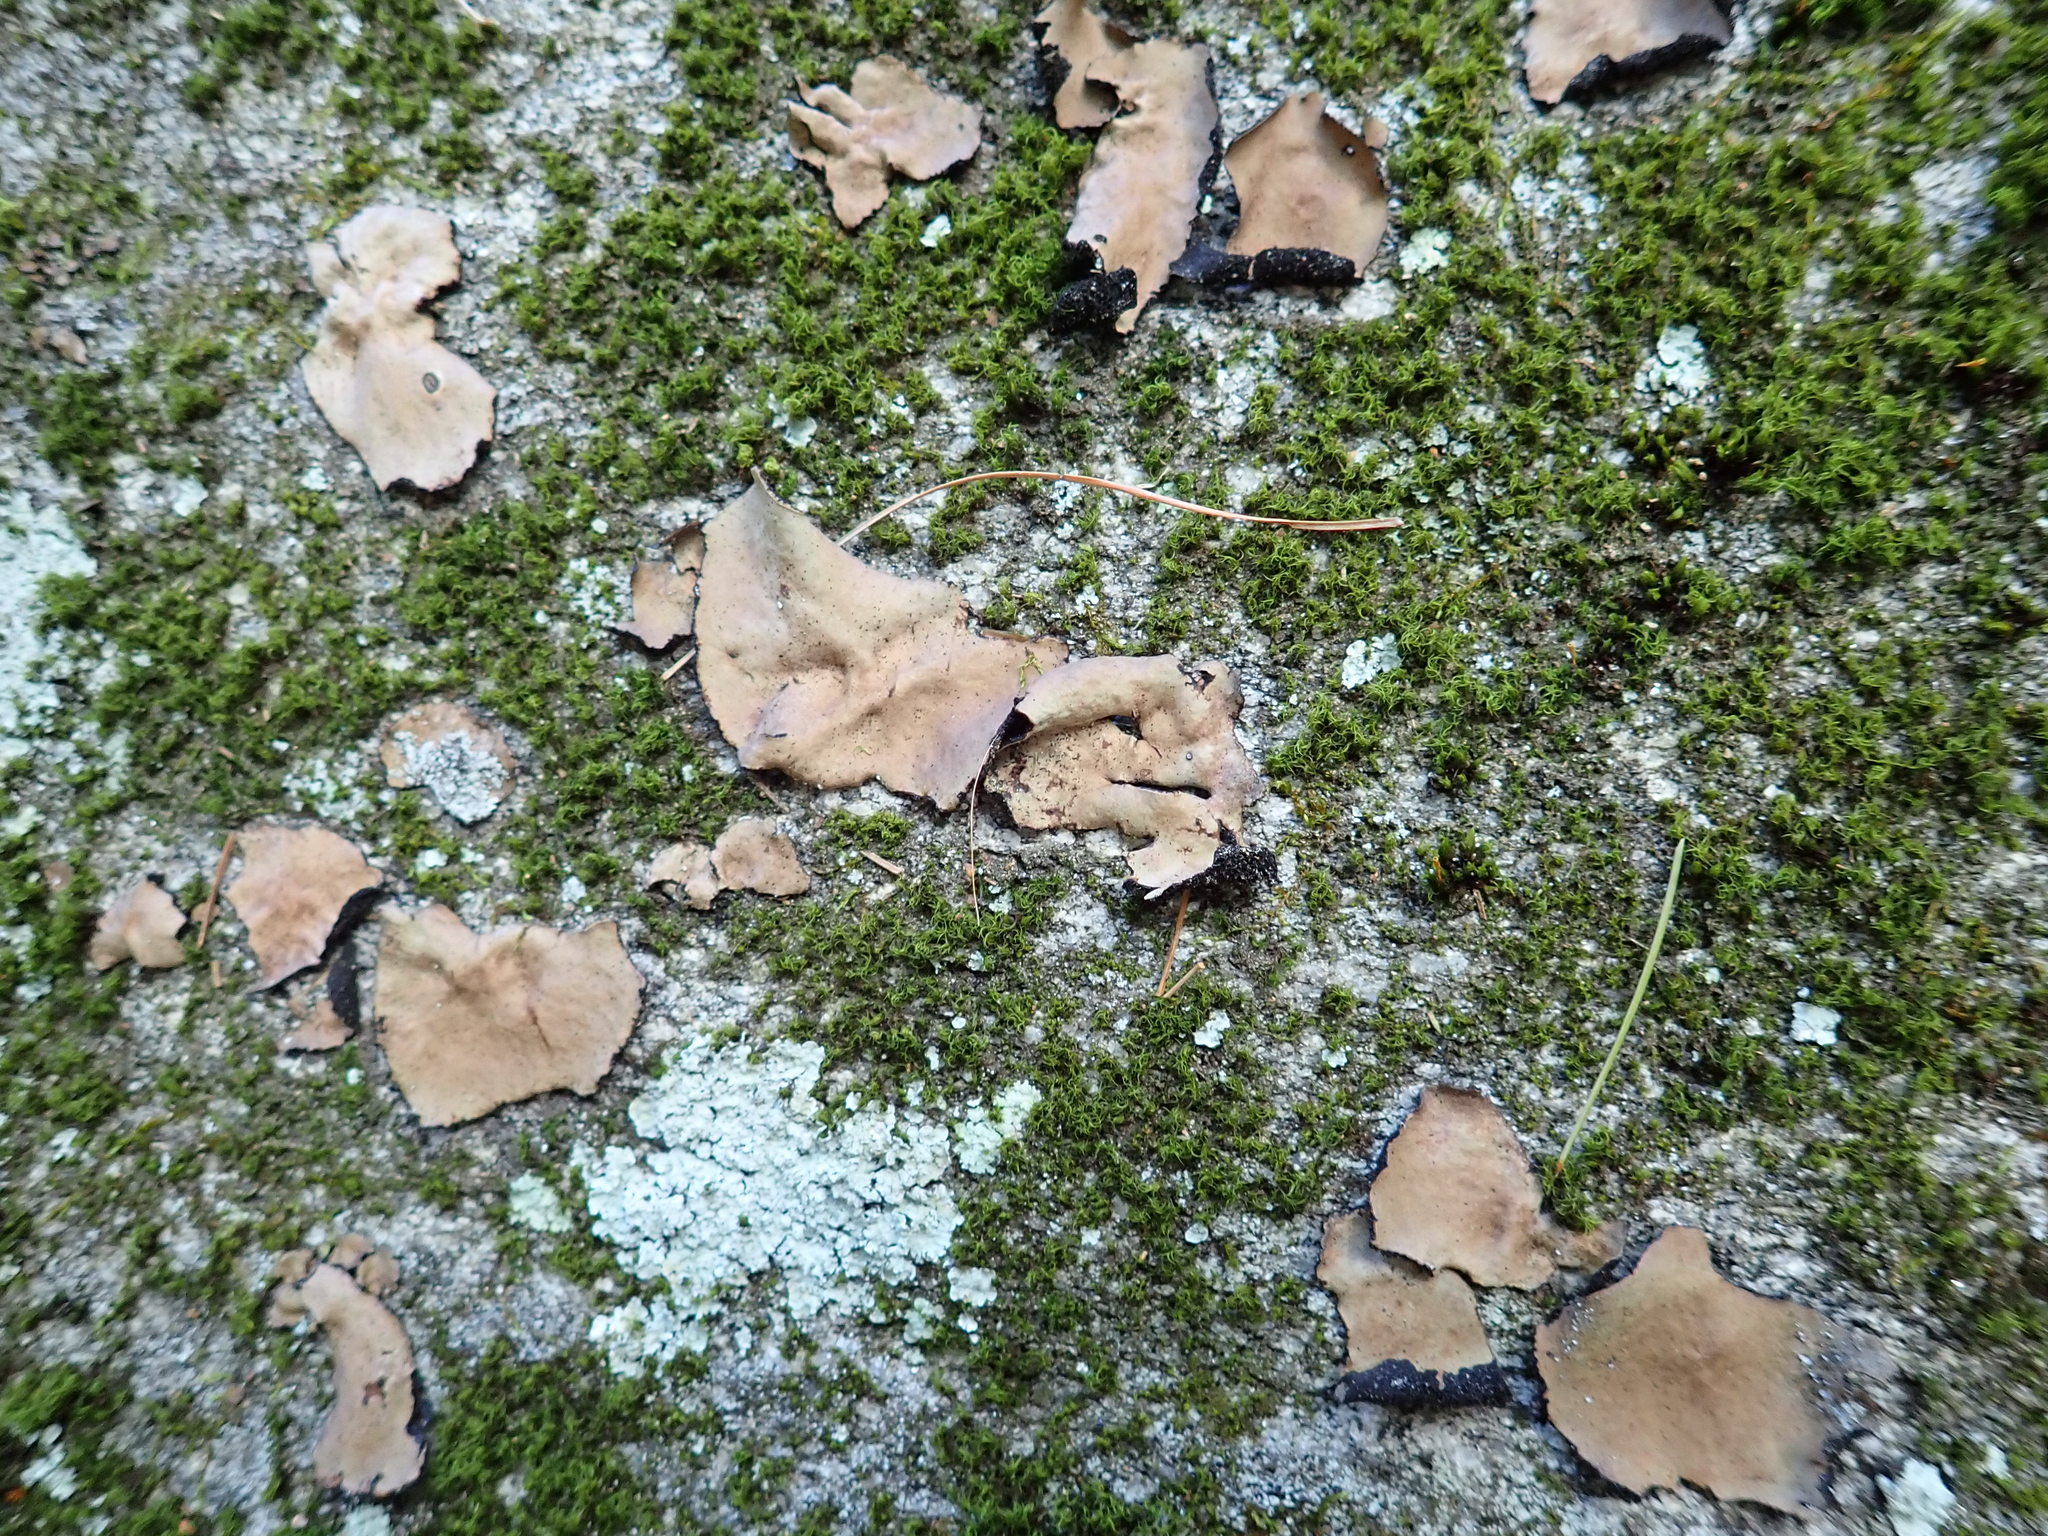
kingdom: Fungi
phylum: Ascomycota
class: Lecanoromycetes
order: Umbilicariales
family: Umbilicariaceae
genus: Umbilicaria
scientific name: Umbilicaria mammulata
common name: Smooth rock tripe
